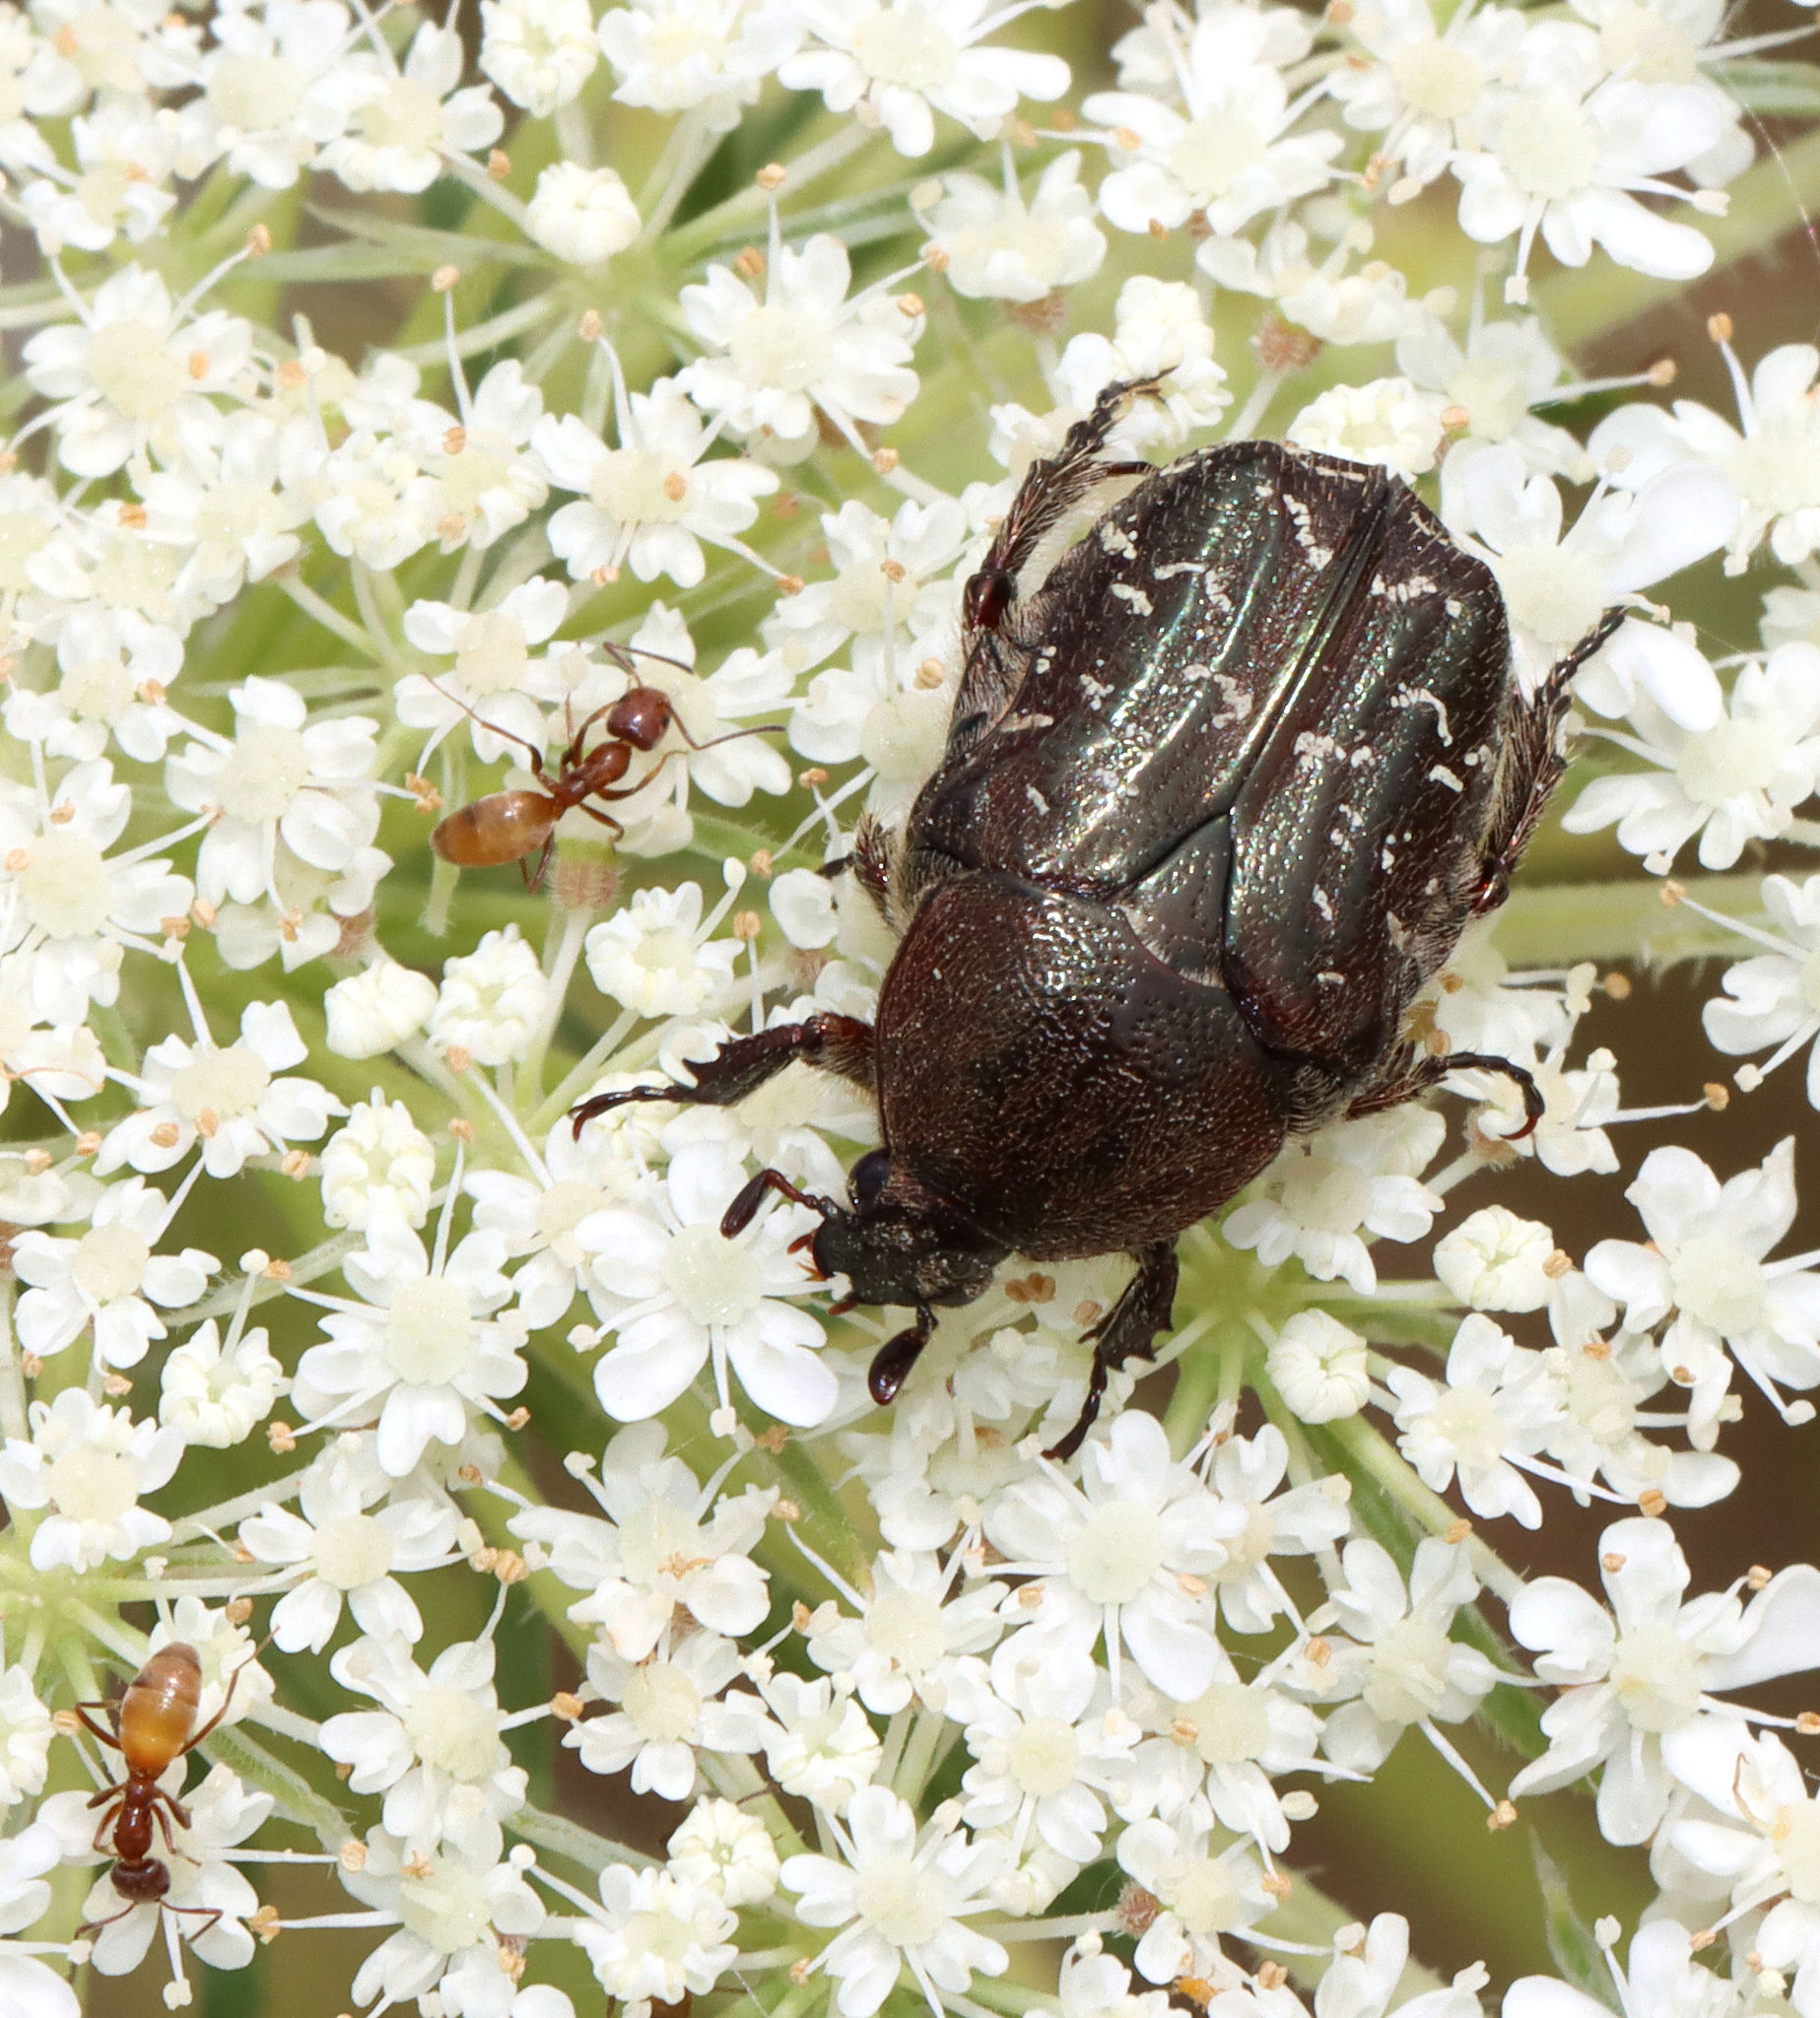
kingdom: Animalia
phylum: Arthropoda
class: Insecta
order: Coleoptera
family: Scarabaeidae
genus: Euphoria
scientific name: Euphoria sepulcralis
